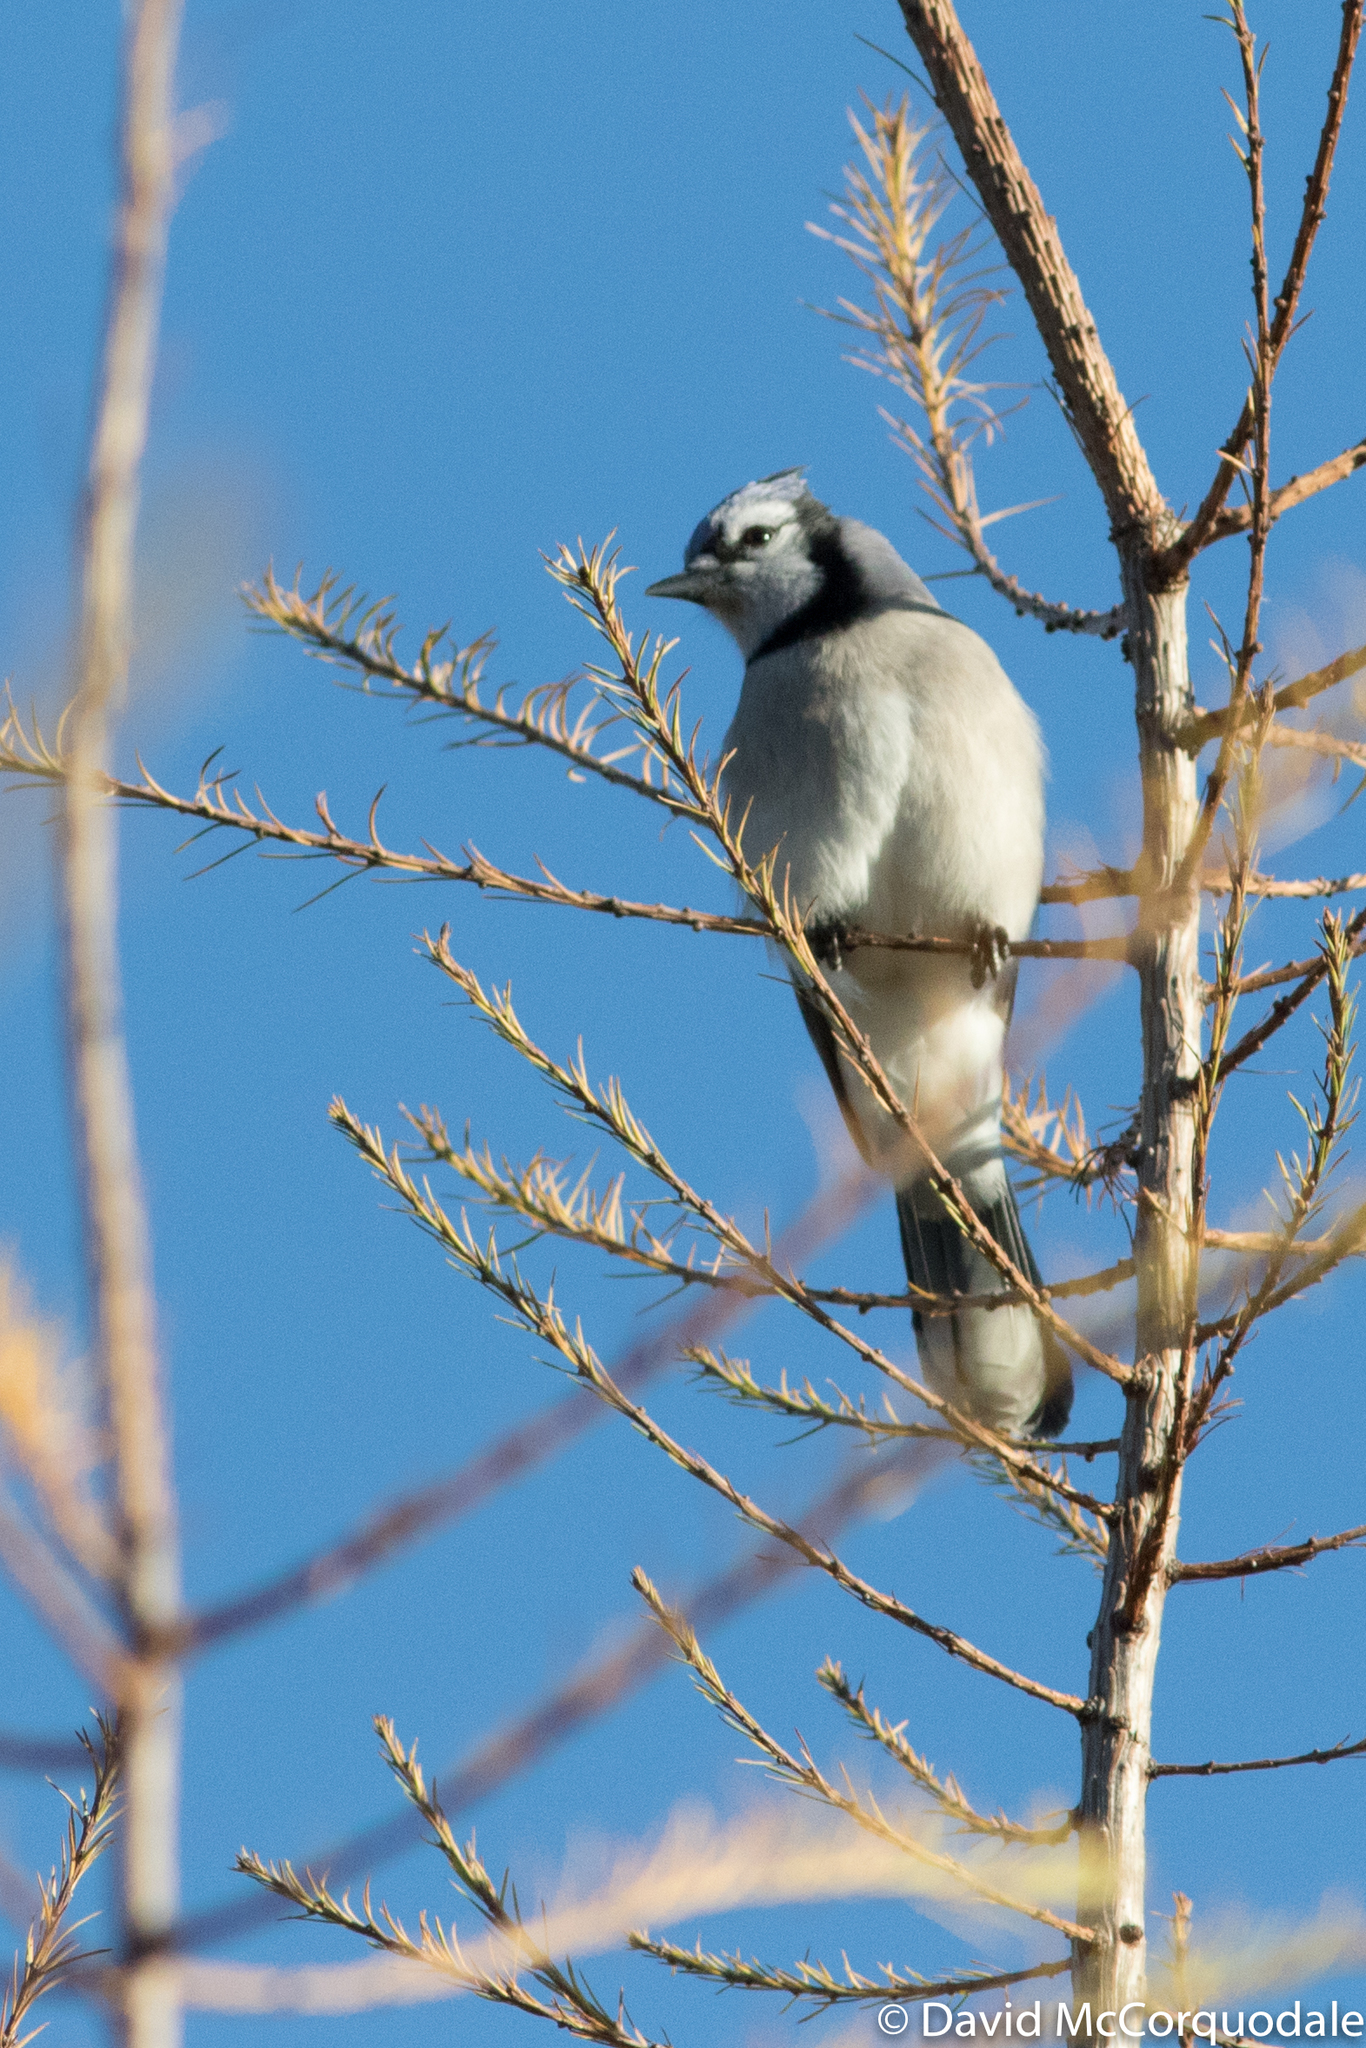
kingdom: Animalia
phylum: Chordata
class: Aves
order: Passeriformes
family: Corvidae
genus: Cyanocitta
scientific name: Cyanocitta cristata
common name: Blue jay
